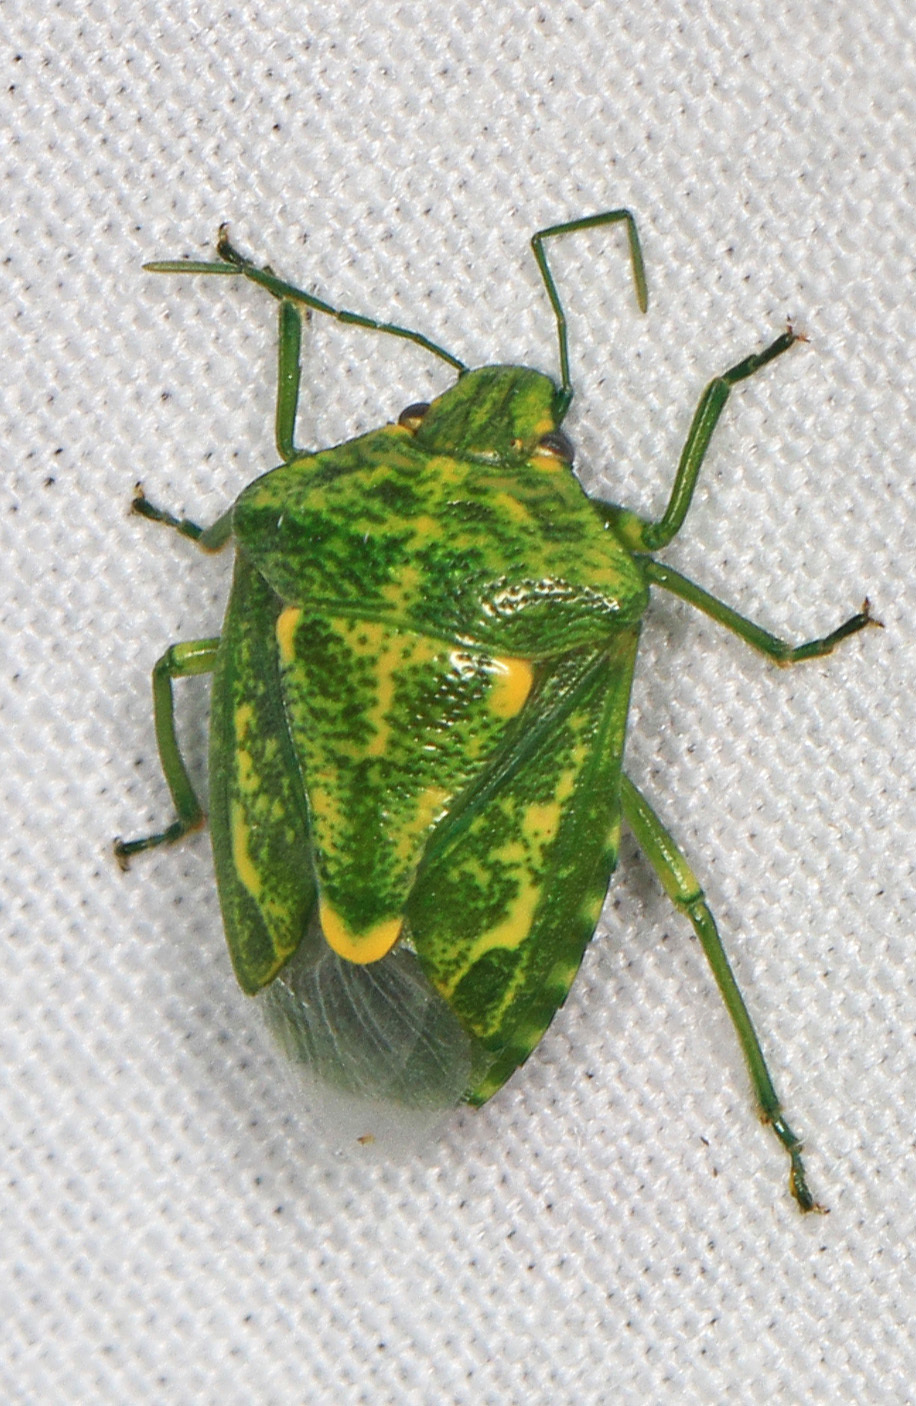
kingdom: Animalia
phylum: Arthropoda
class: Insecta
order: Hemiptera
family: Pentatomidae
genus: Banasa
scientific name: Banasa euchlora
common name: Cedar berry bug
